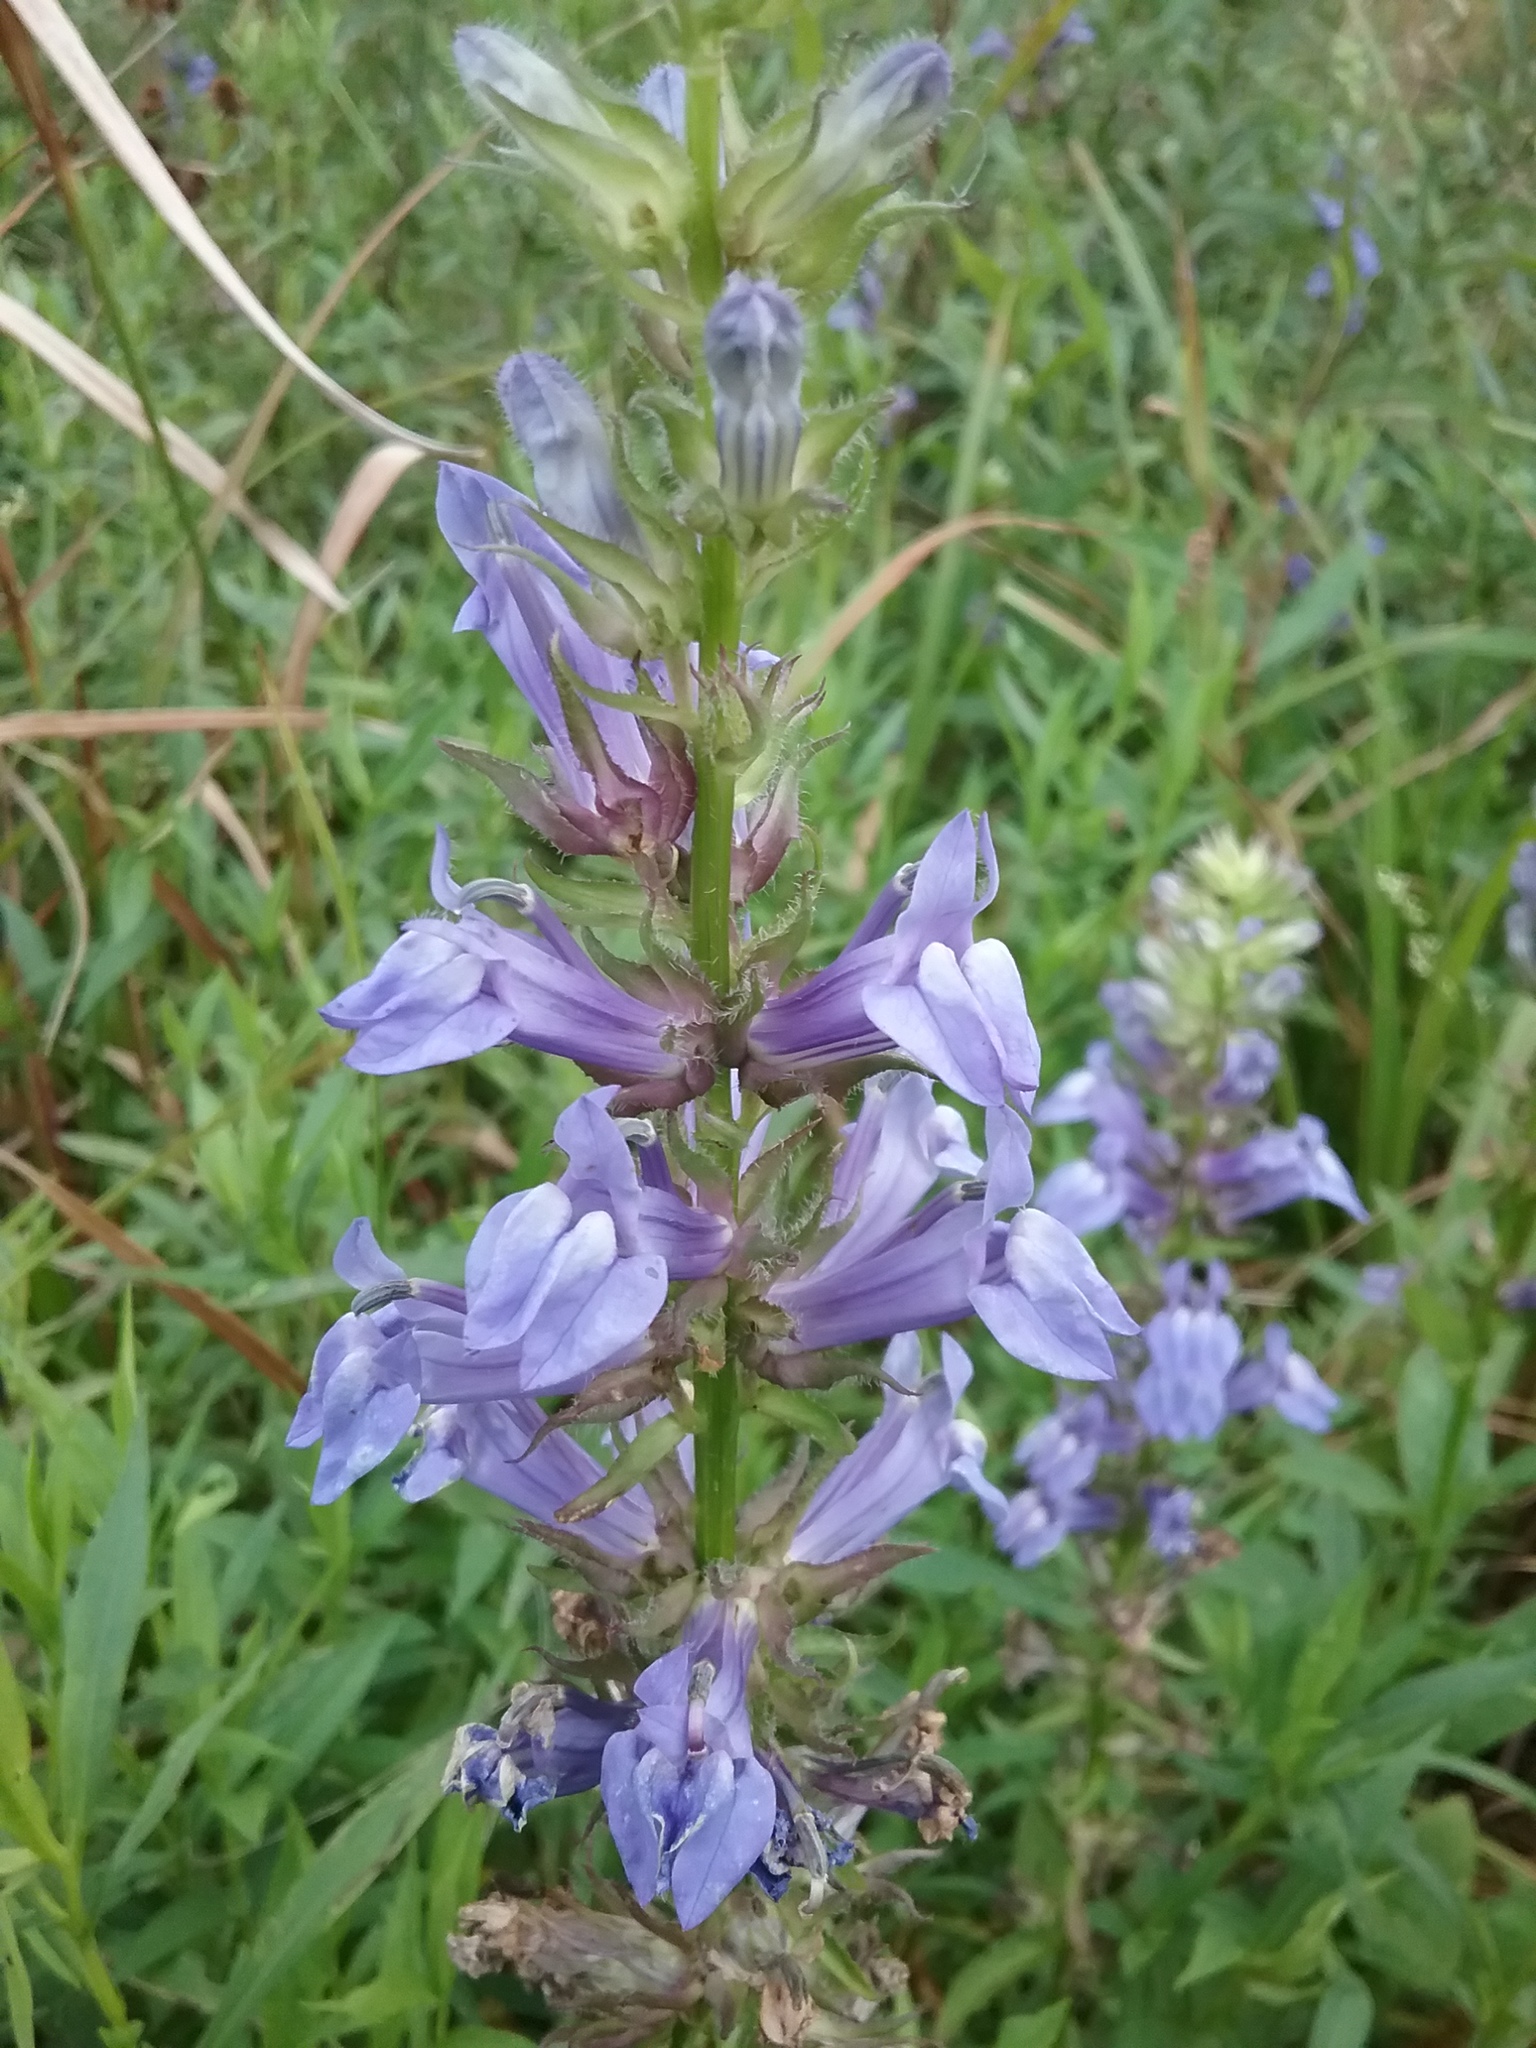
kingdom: Plantae
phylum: Tracheophyta
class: Magnoliopsida
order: Asterales
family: Campanulaceae
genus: Lobelia
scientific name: Lobelia siphilitica
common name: Great lobelia
